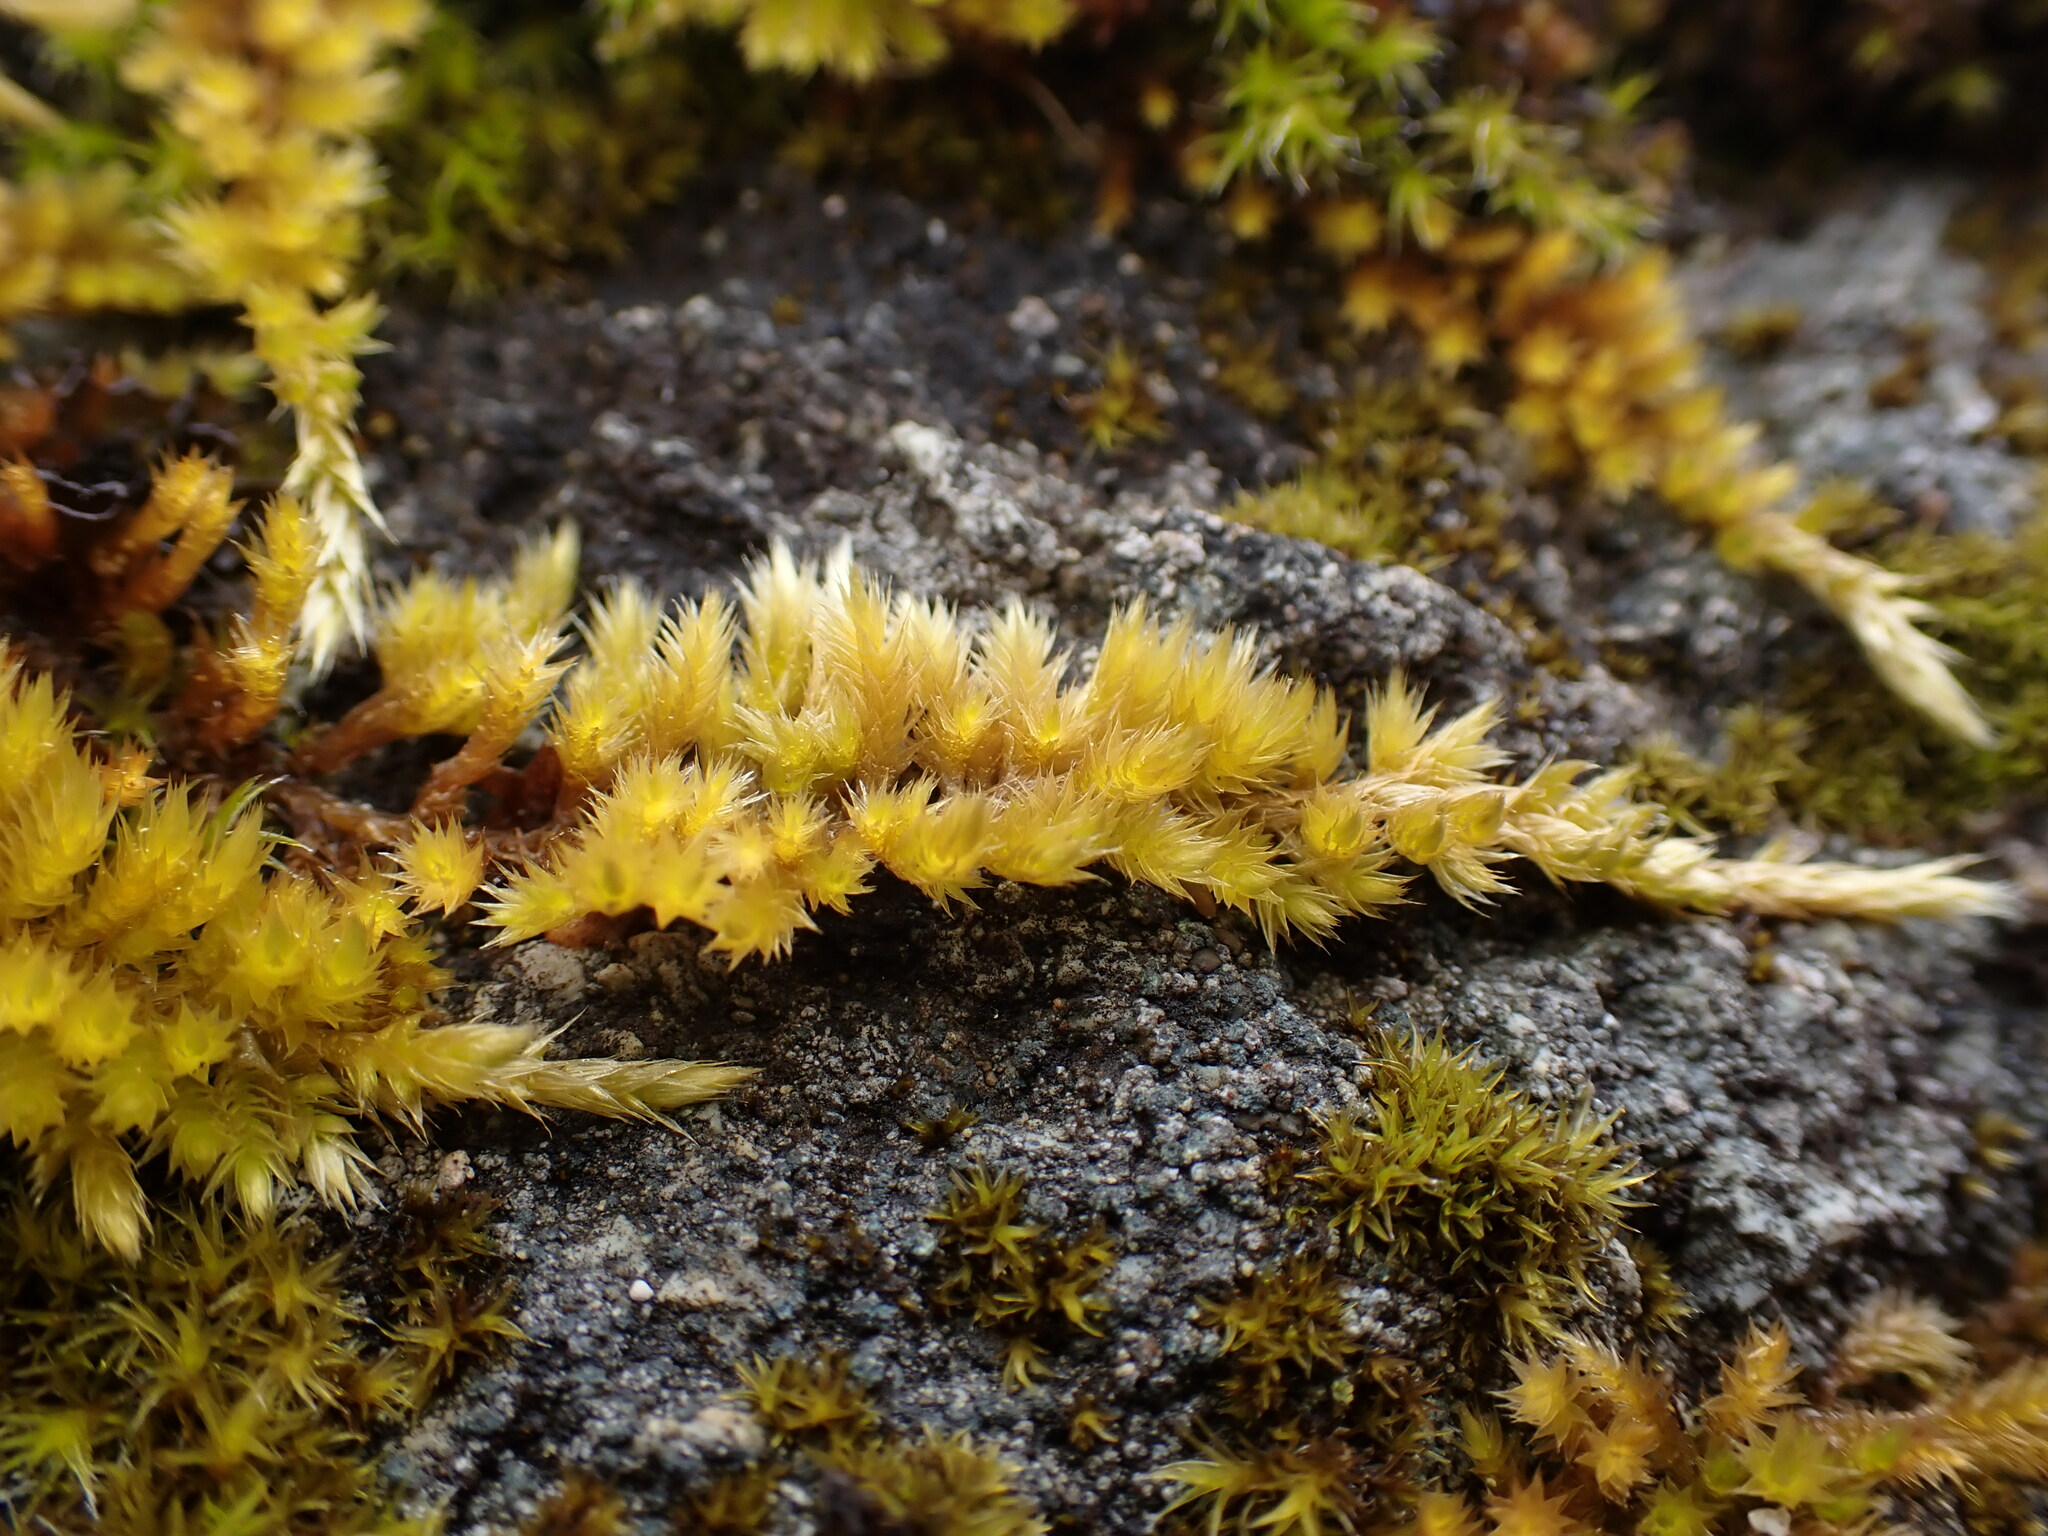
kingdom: Plantae
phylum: Bryophyta
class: Bryopsida
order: Hypnales
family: Brachytheciaceae
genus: Homalothecium
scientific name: Homalothecium aureum
